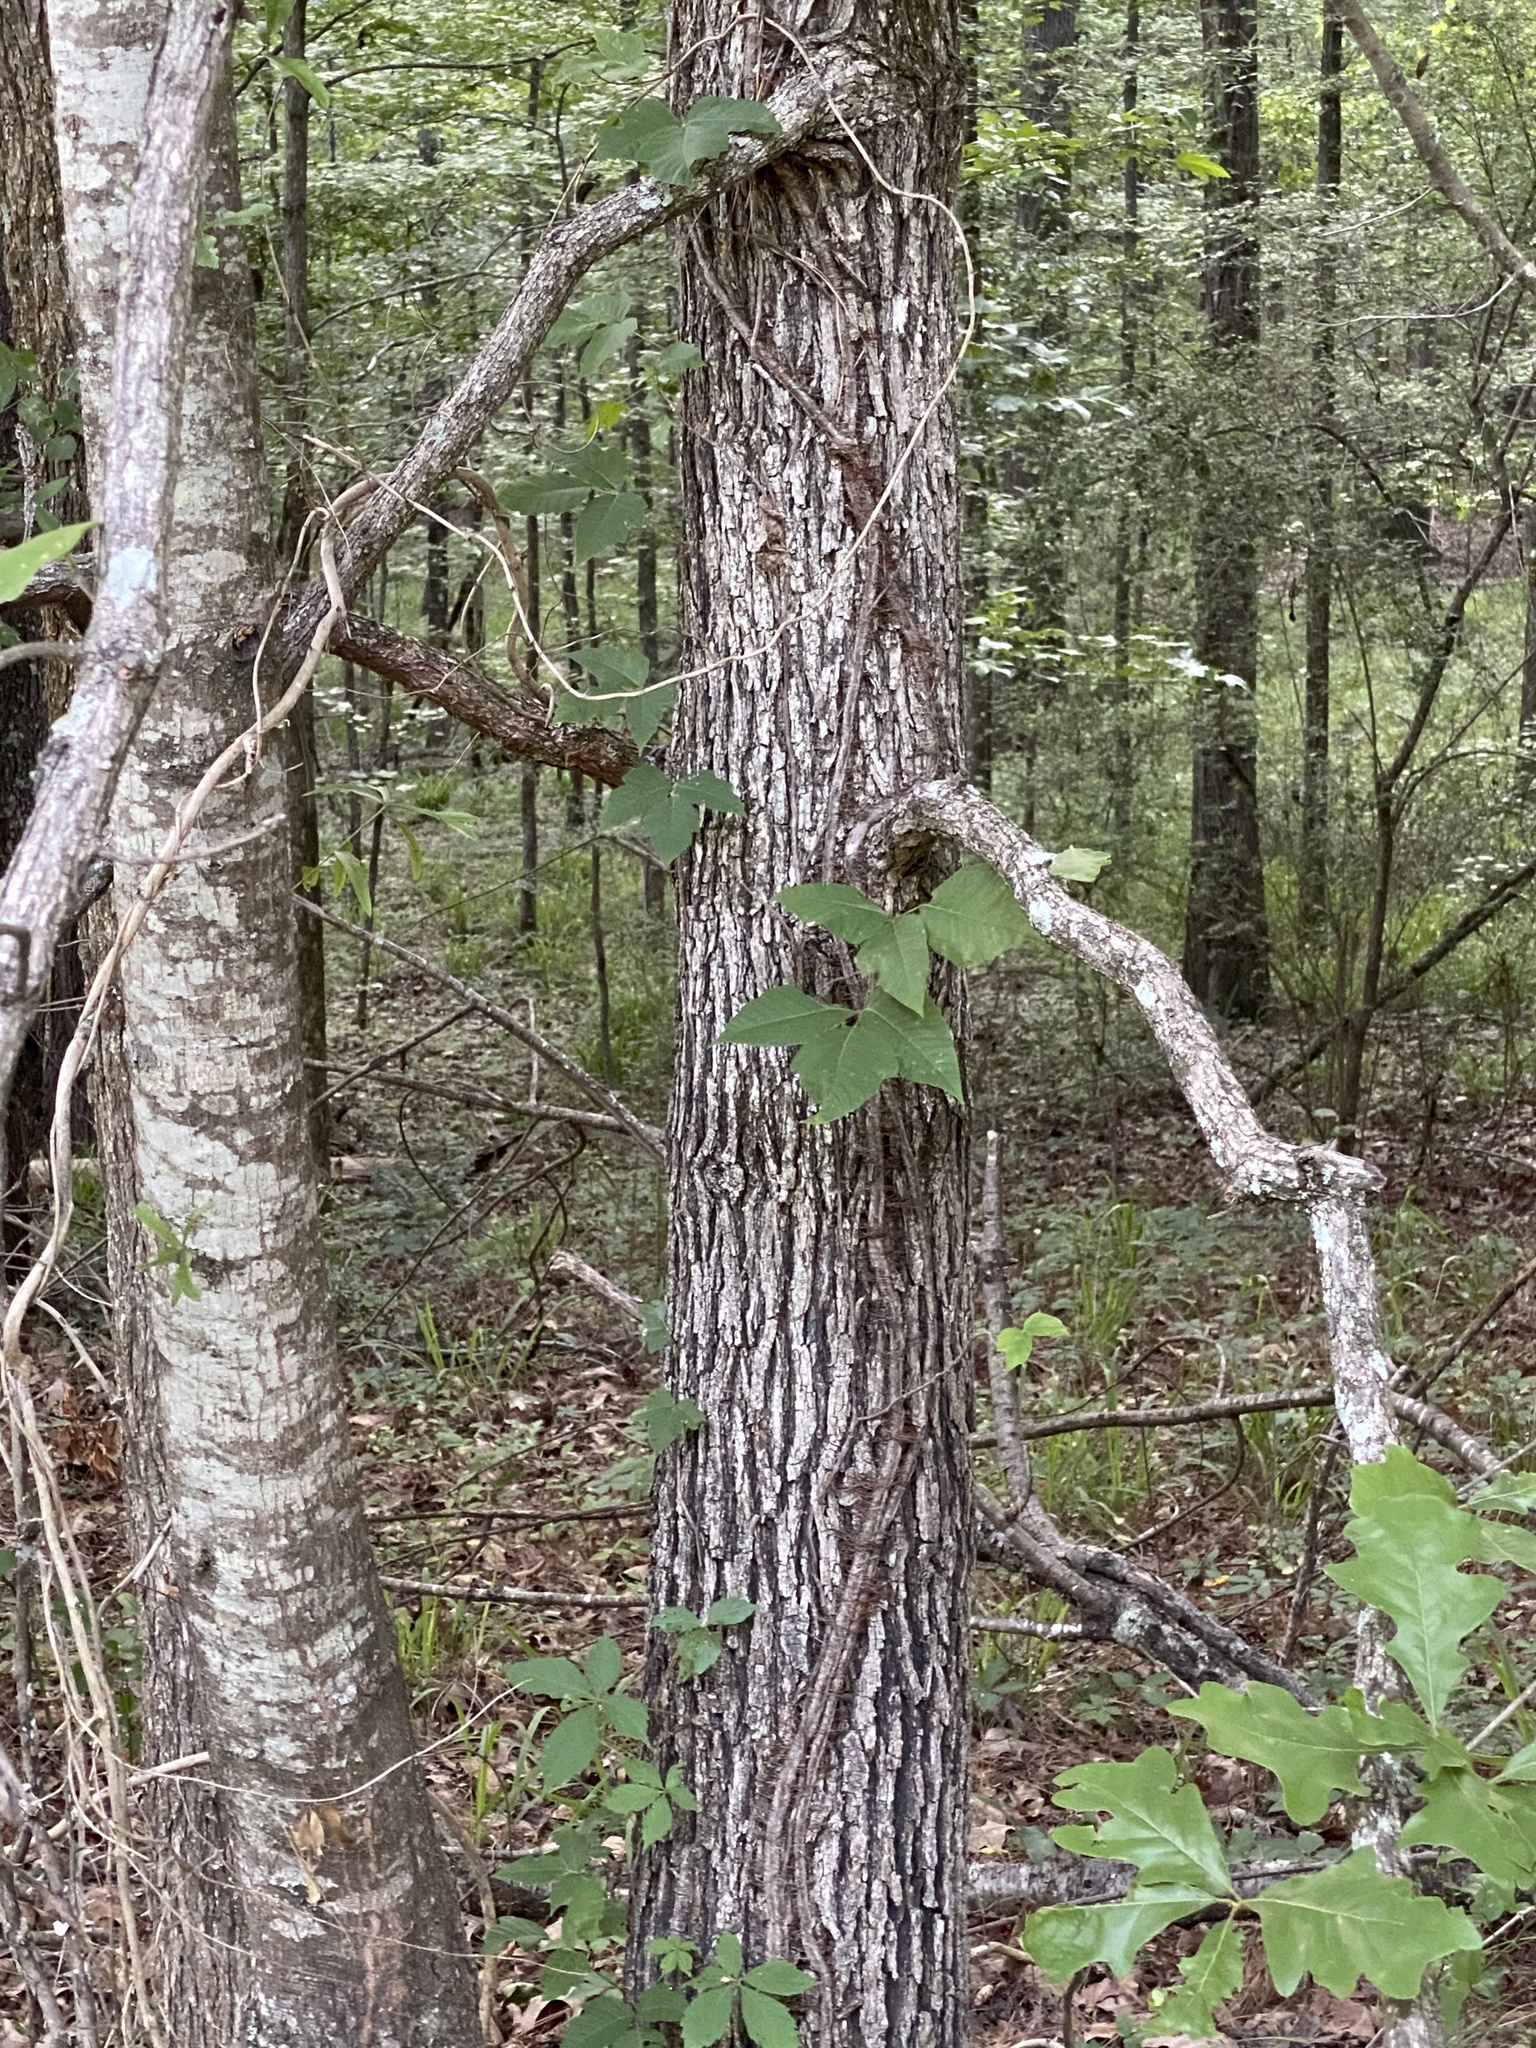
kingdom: Plantae
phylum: Tracheophyta
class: Magnoliopsida
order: Fagales
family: Fagaceae
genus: Quercus
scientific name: Quercus stellata
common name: Post oak
